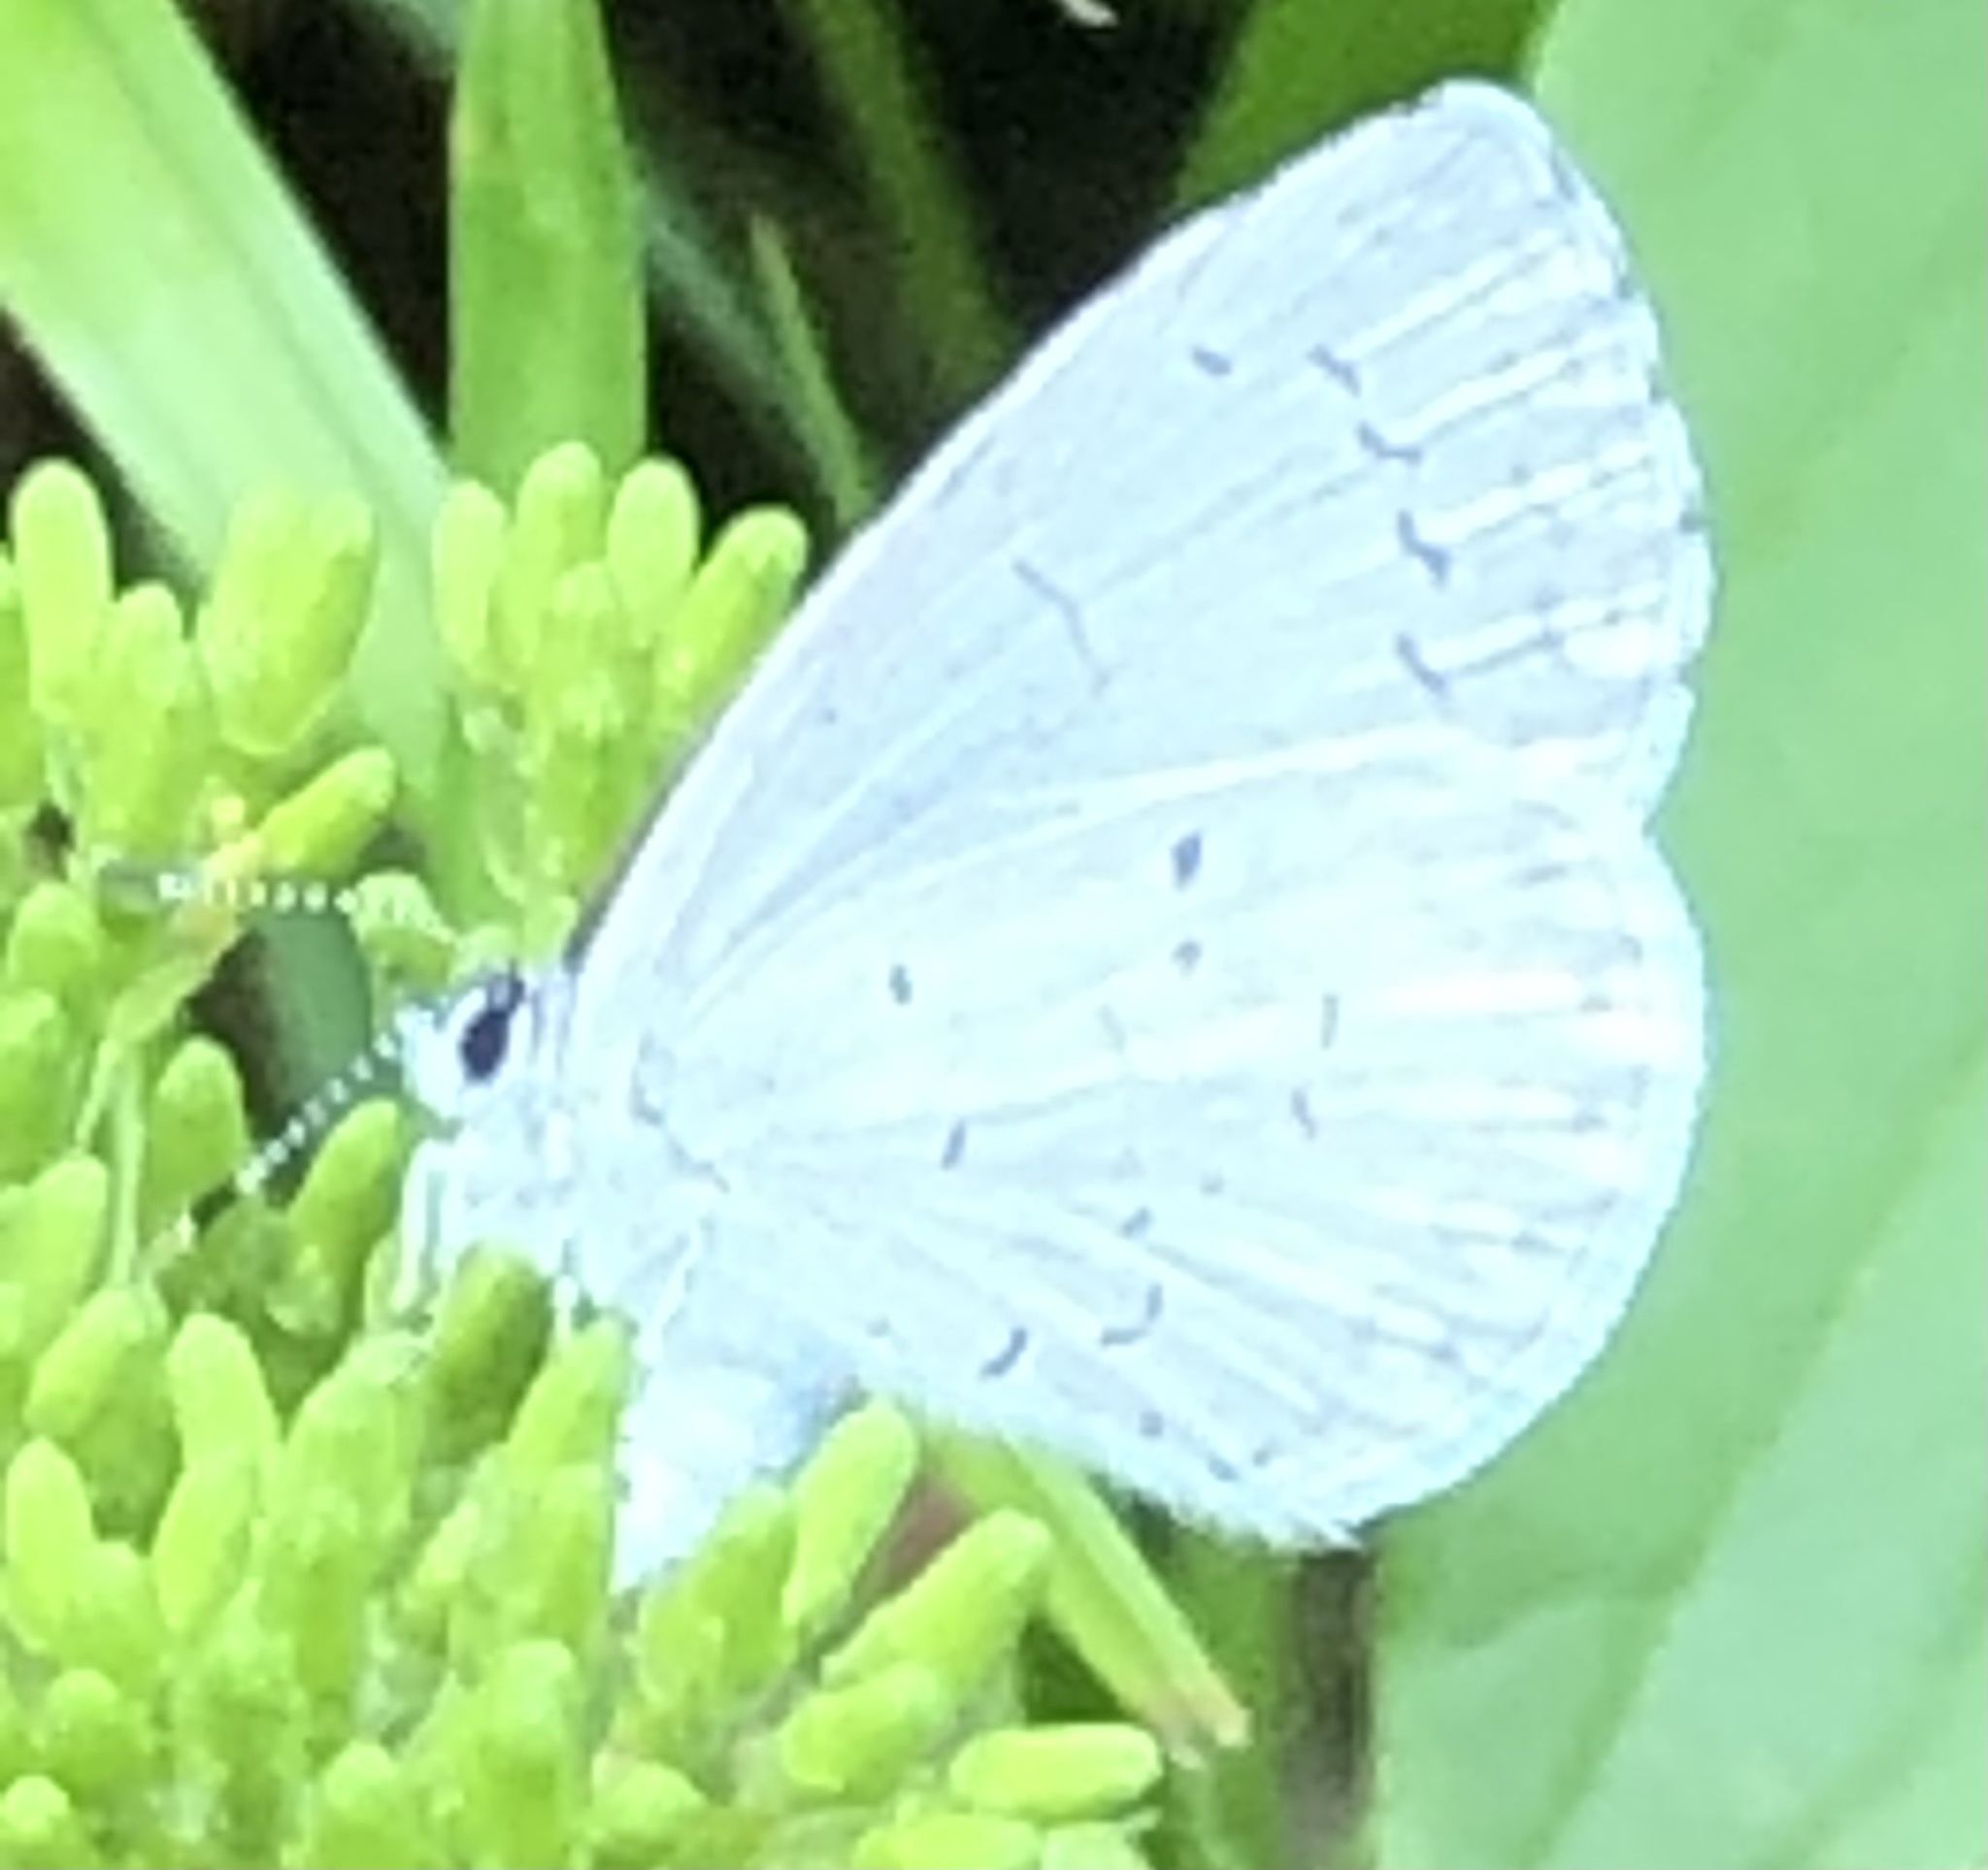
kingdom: Animalia
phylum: Arthropoda
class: Insecta
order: Lepidoptera
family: Lycaenidae
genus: Celastrina
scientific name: Celastrina
